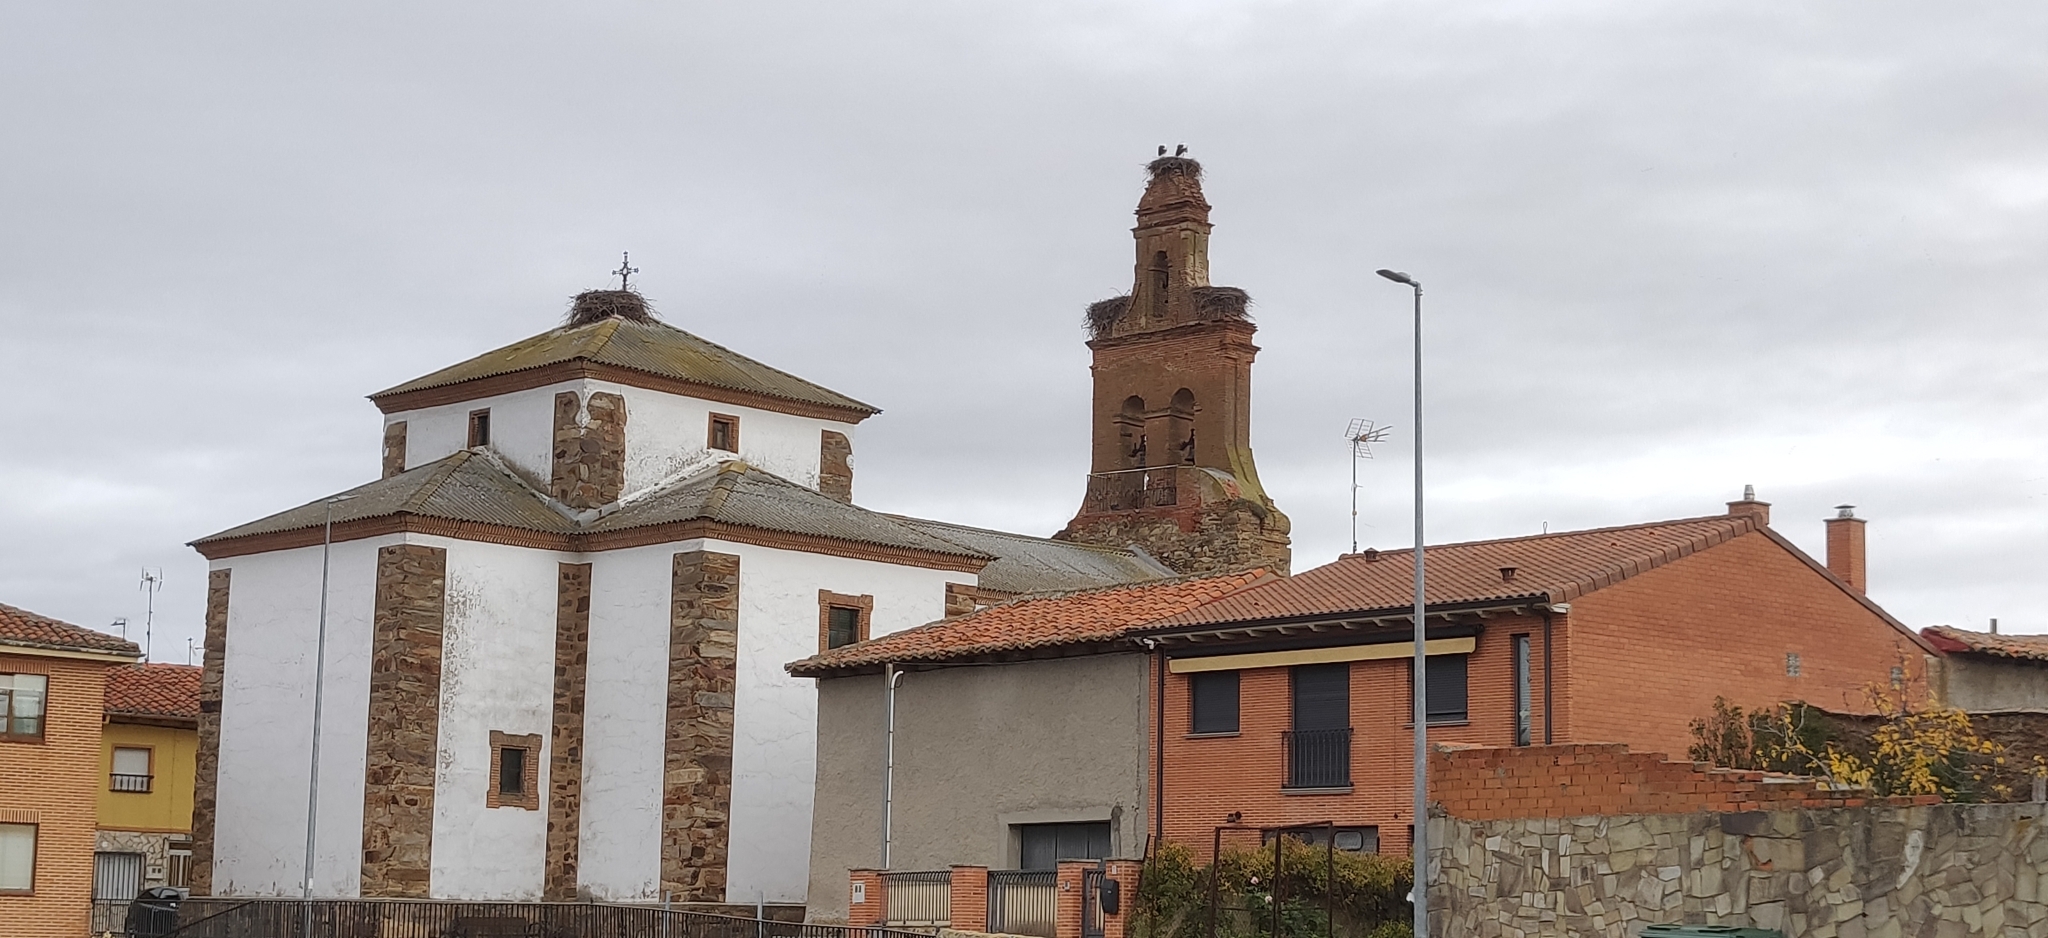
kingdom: Animalia
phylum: Chordata
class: Aves
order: Ciconiiformes
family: Ciconiidae
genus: Ciconia
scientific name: Ciconia ciconia
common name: White stork
